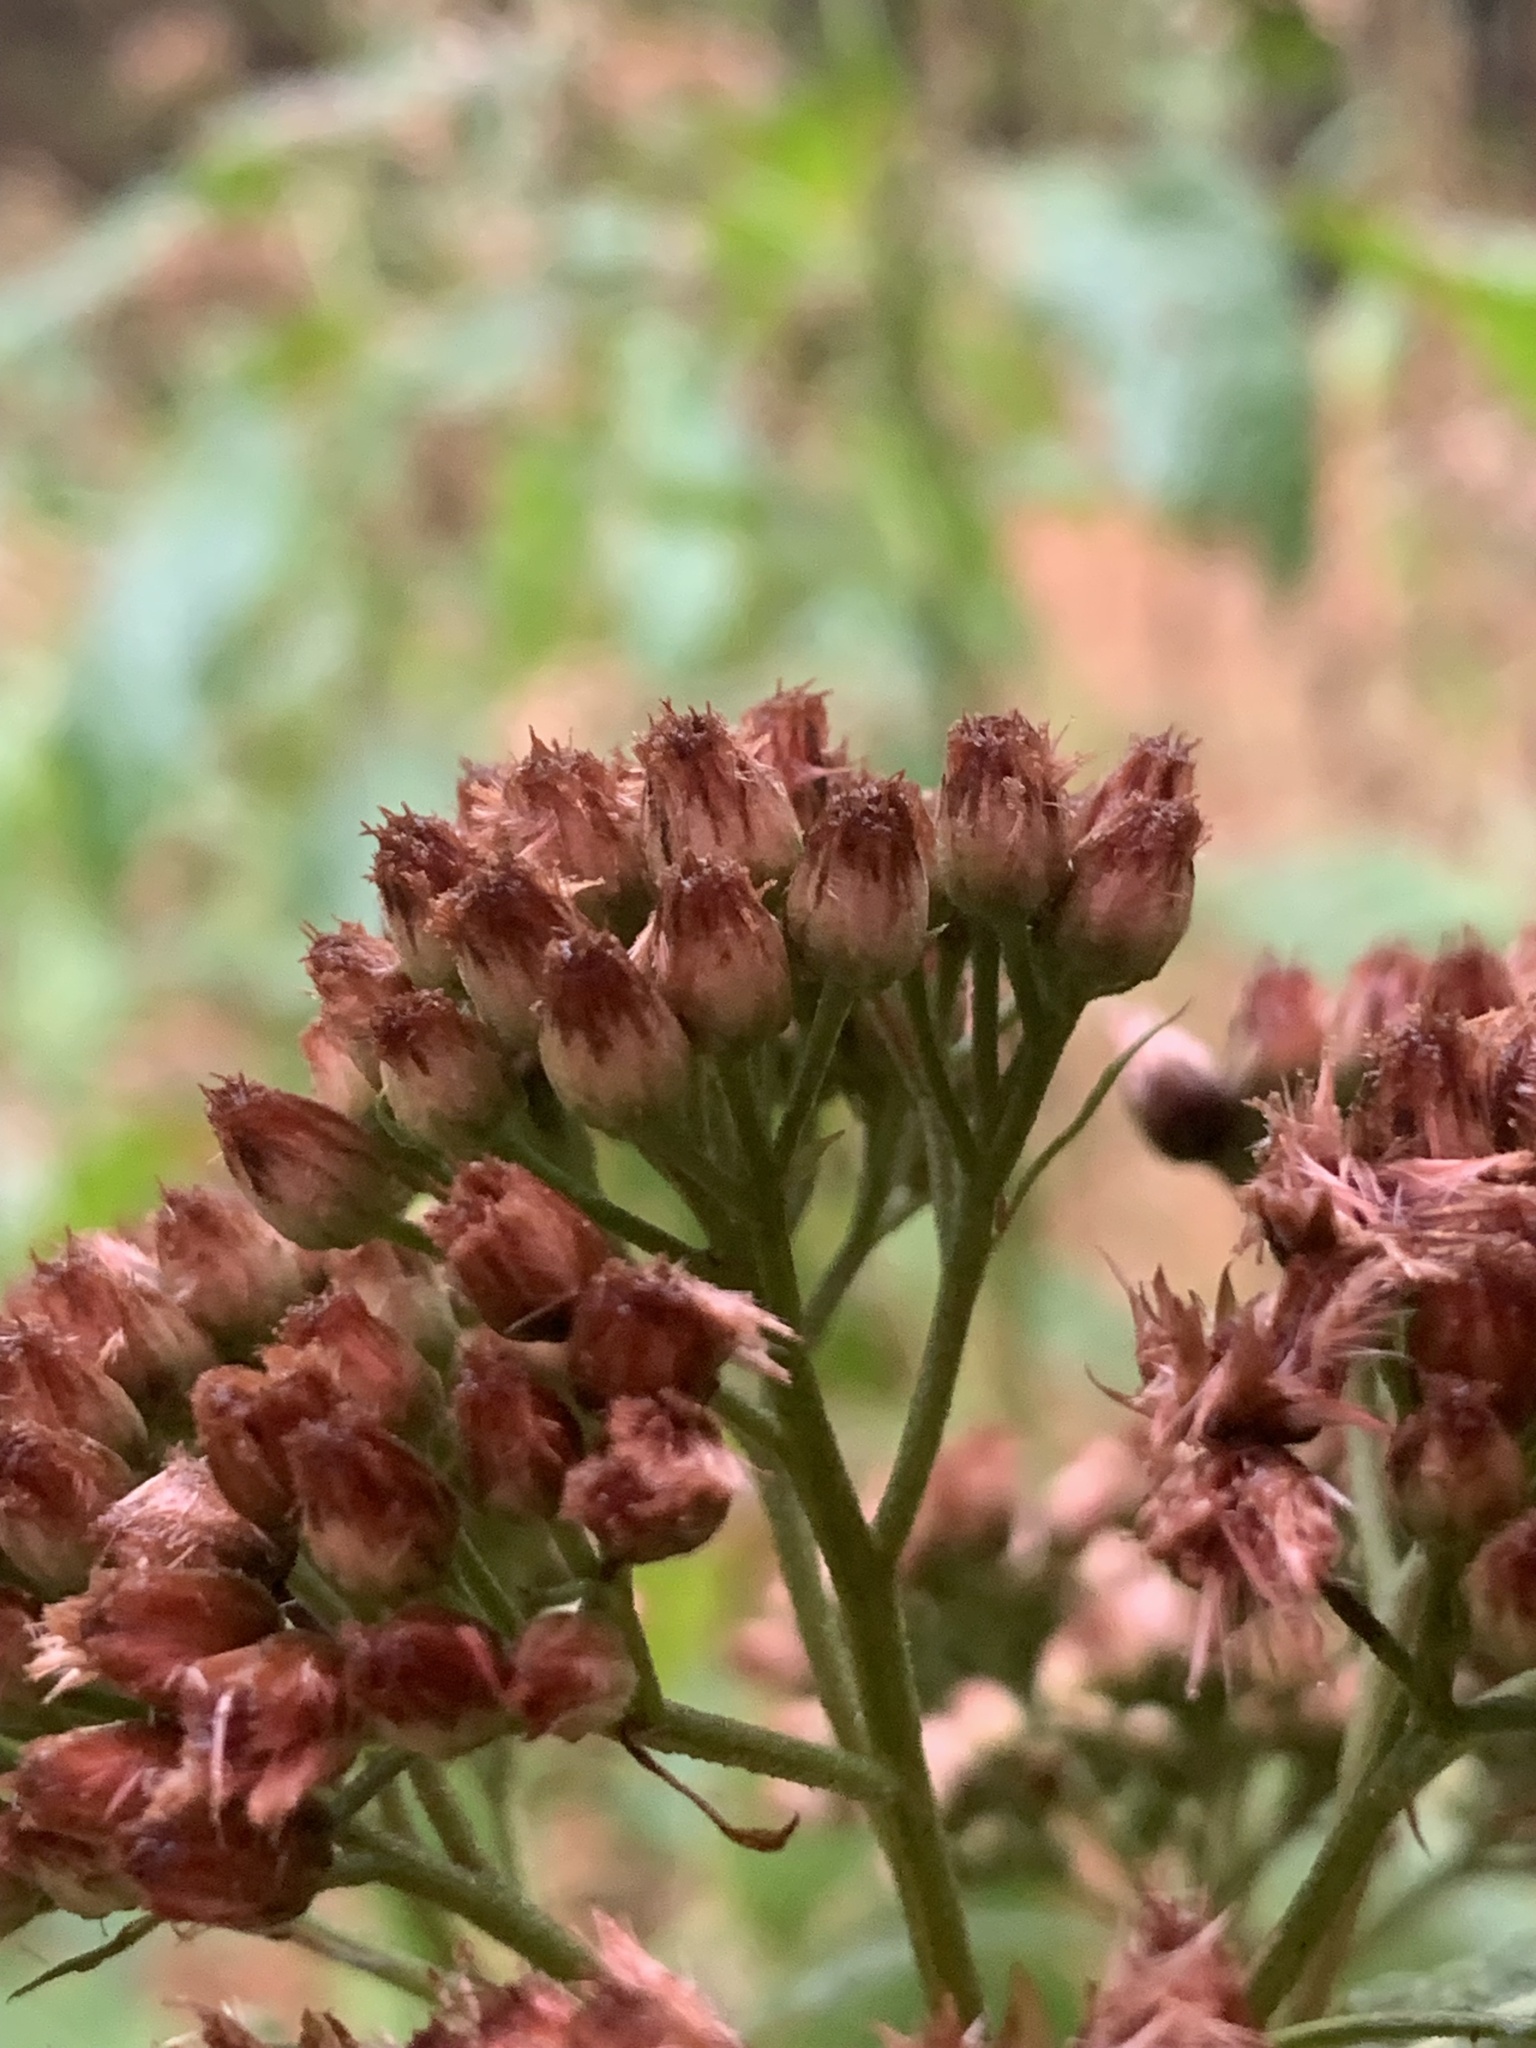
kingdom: Plantae
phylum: Tracheophyta
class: Magnoliopsida
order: Asterales
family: Asteraceae
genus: Pluchea
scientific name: Pluchea camphorata
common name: Camphor pluchea
